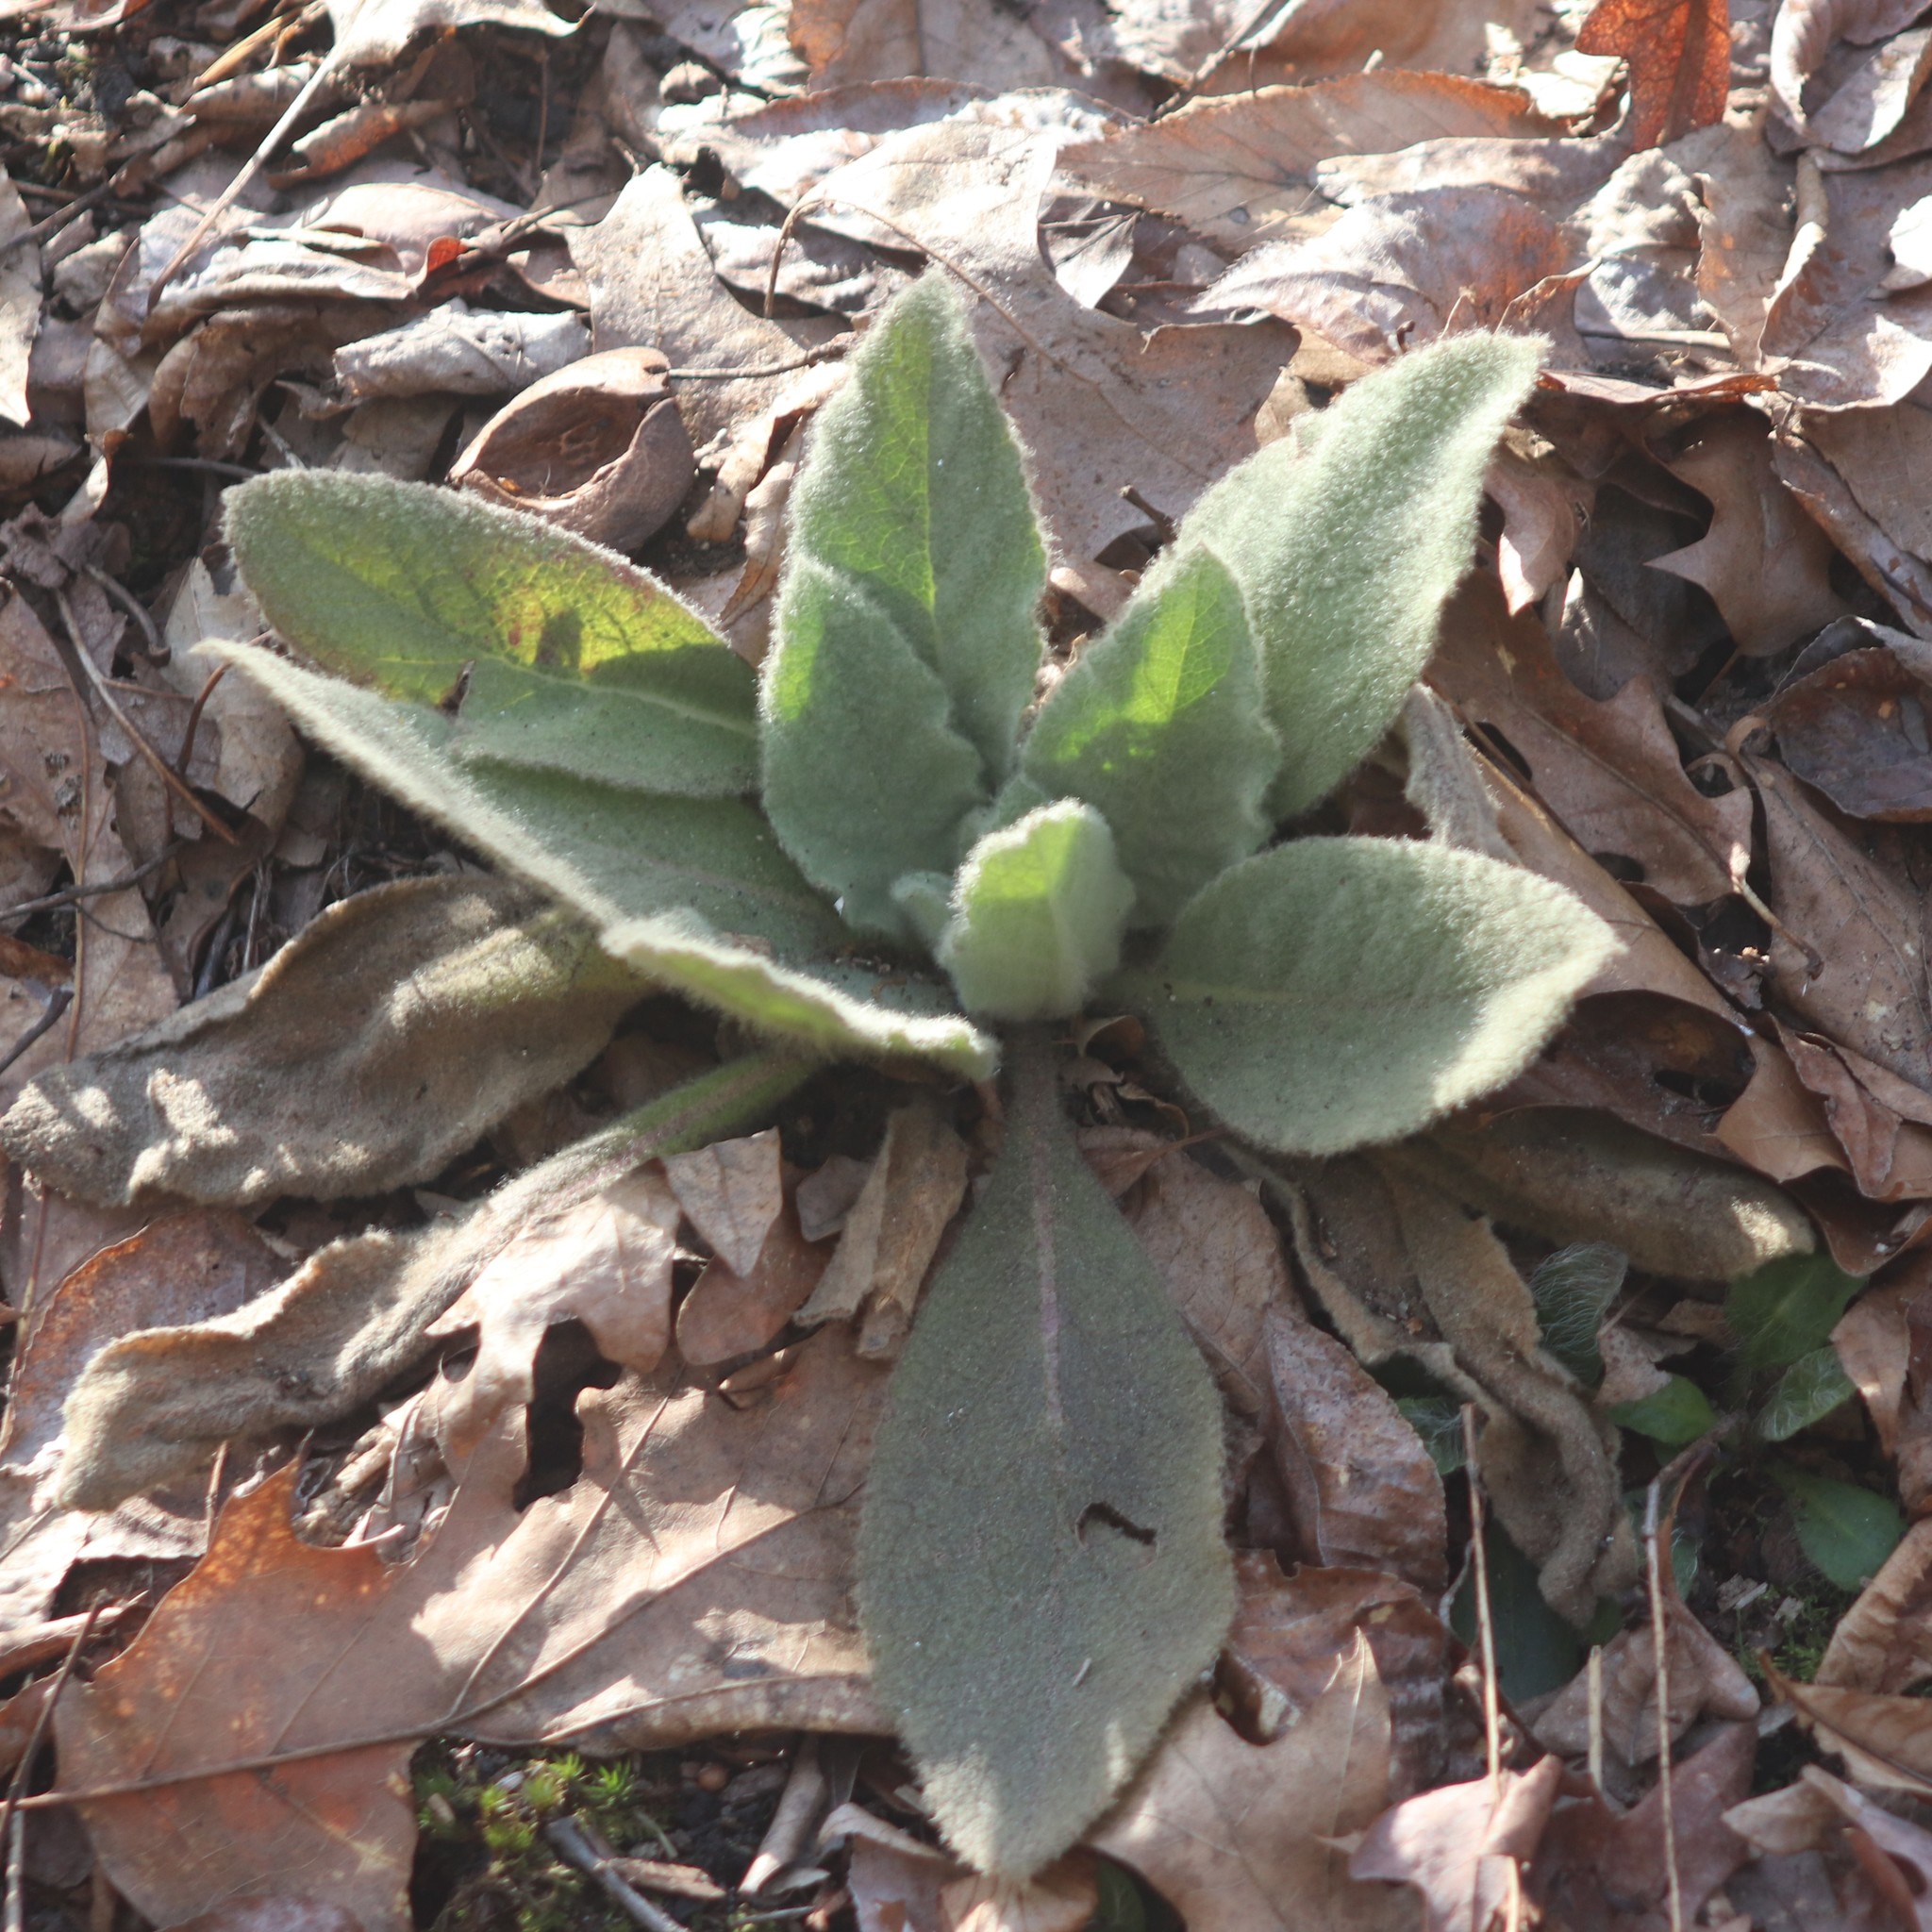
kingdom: Plantae
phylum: Tracheophyta
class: Magnoliopsida
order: Lamiales
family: Scrophulariaceae
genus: Verbascum
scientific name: Verbascum thapsus
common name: Common mullein
